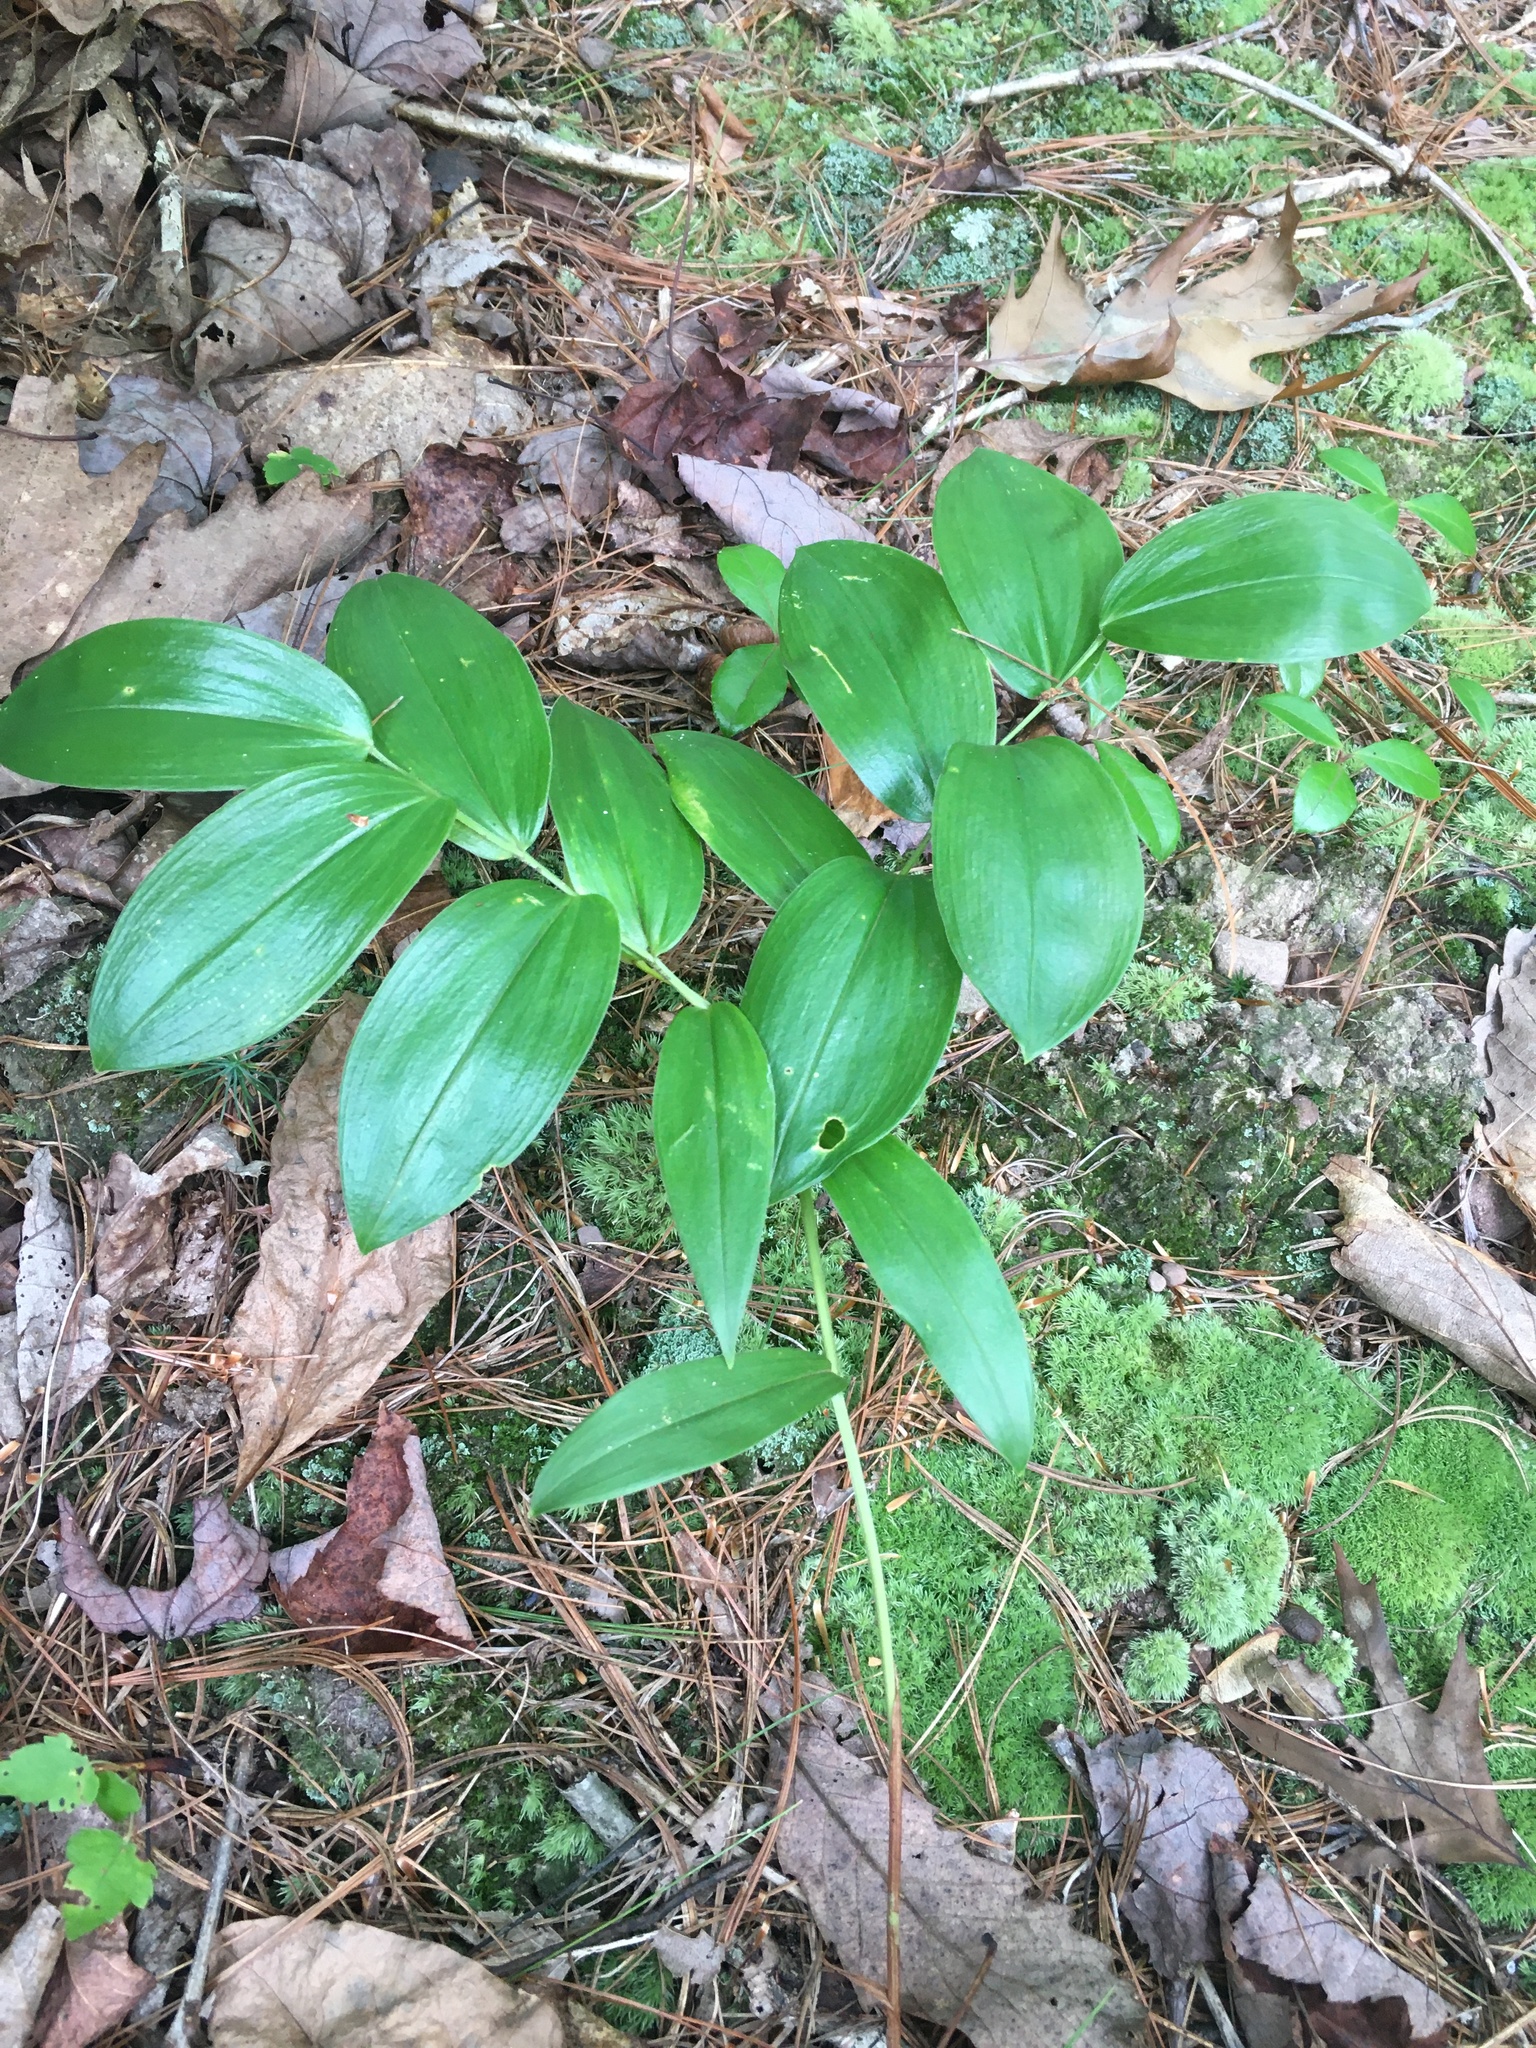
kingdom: Plantae
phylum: Tracheophyta
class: Liliopsida
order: Liliales
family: Colchicaceae
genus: Uvularia
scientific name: Uvularia puberula
